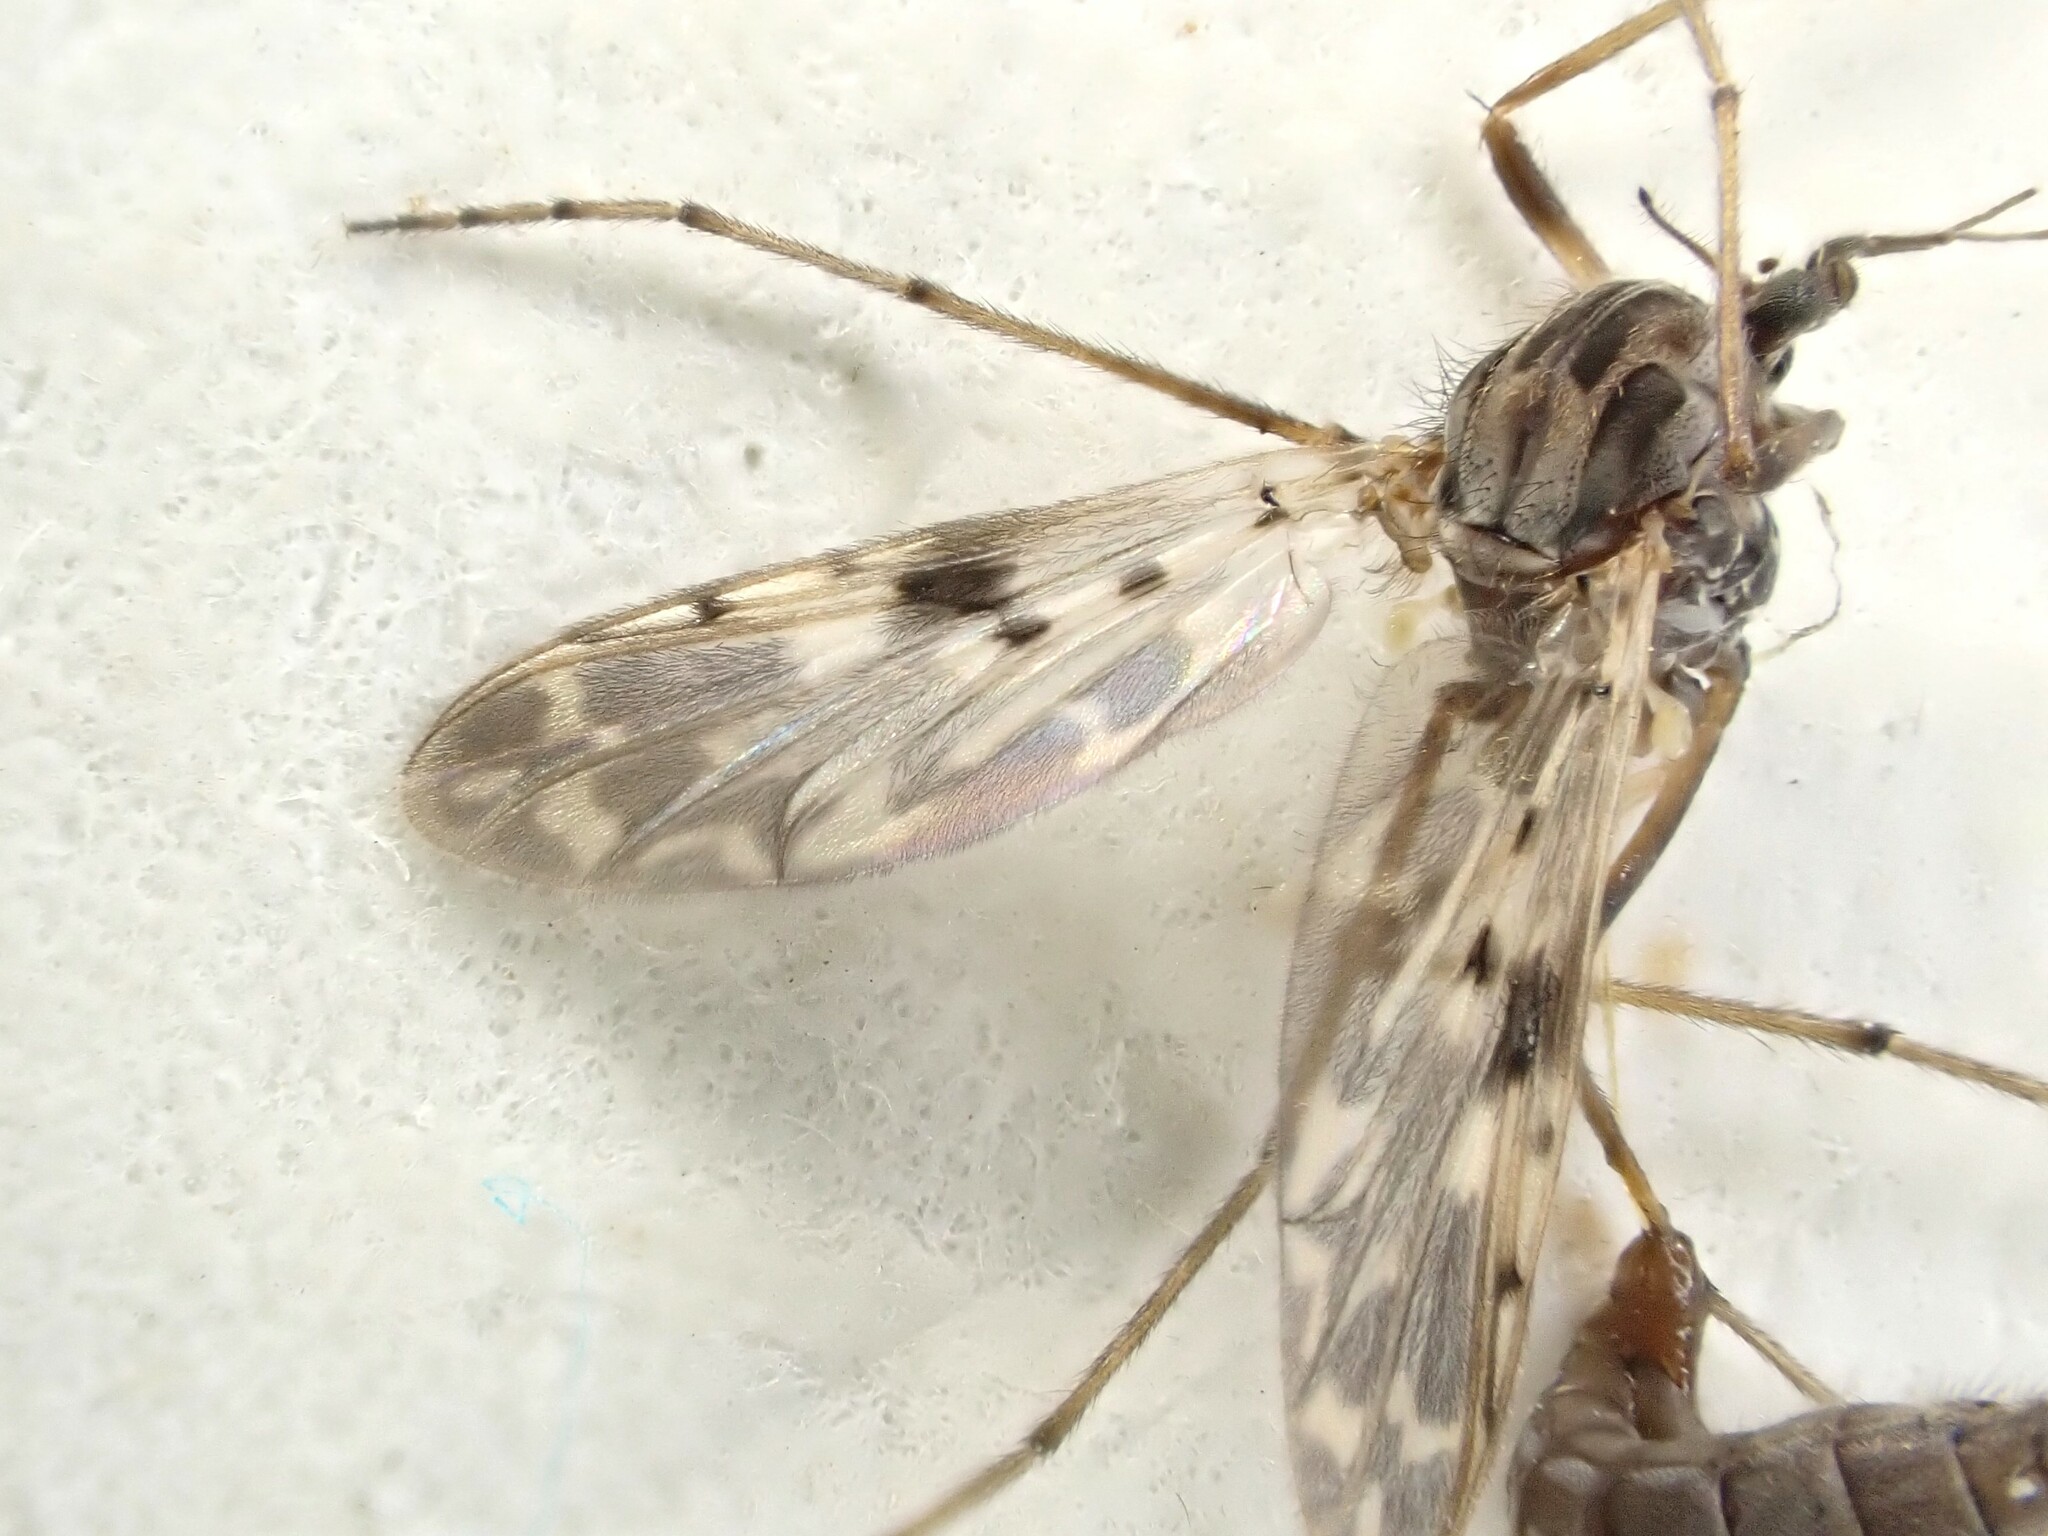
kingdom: Animalia
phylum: Arthropoda
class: Insecta
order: Diptera
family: Chironomidae
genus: Gressittius
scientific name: Gressittius antarcticus
